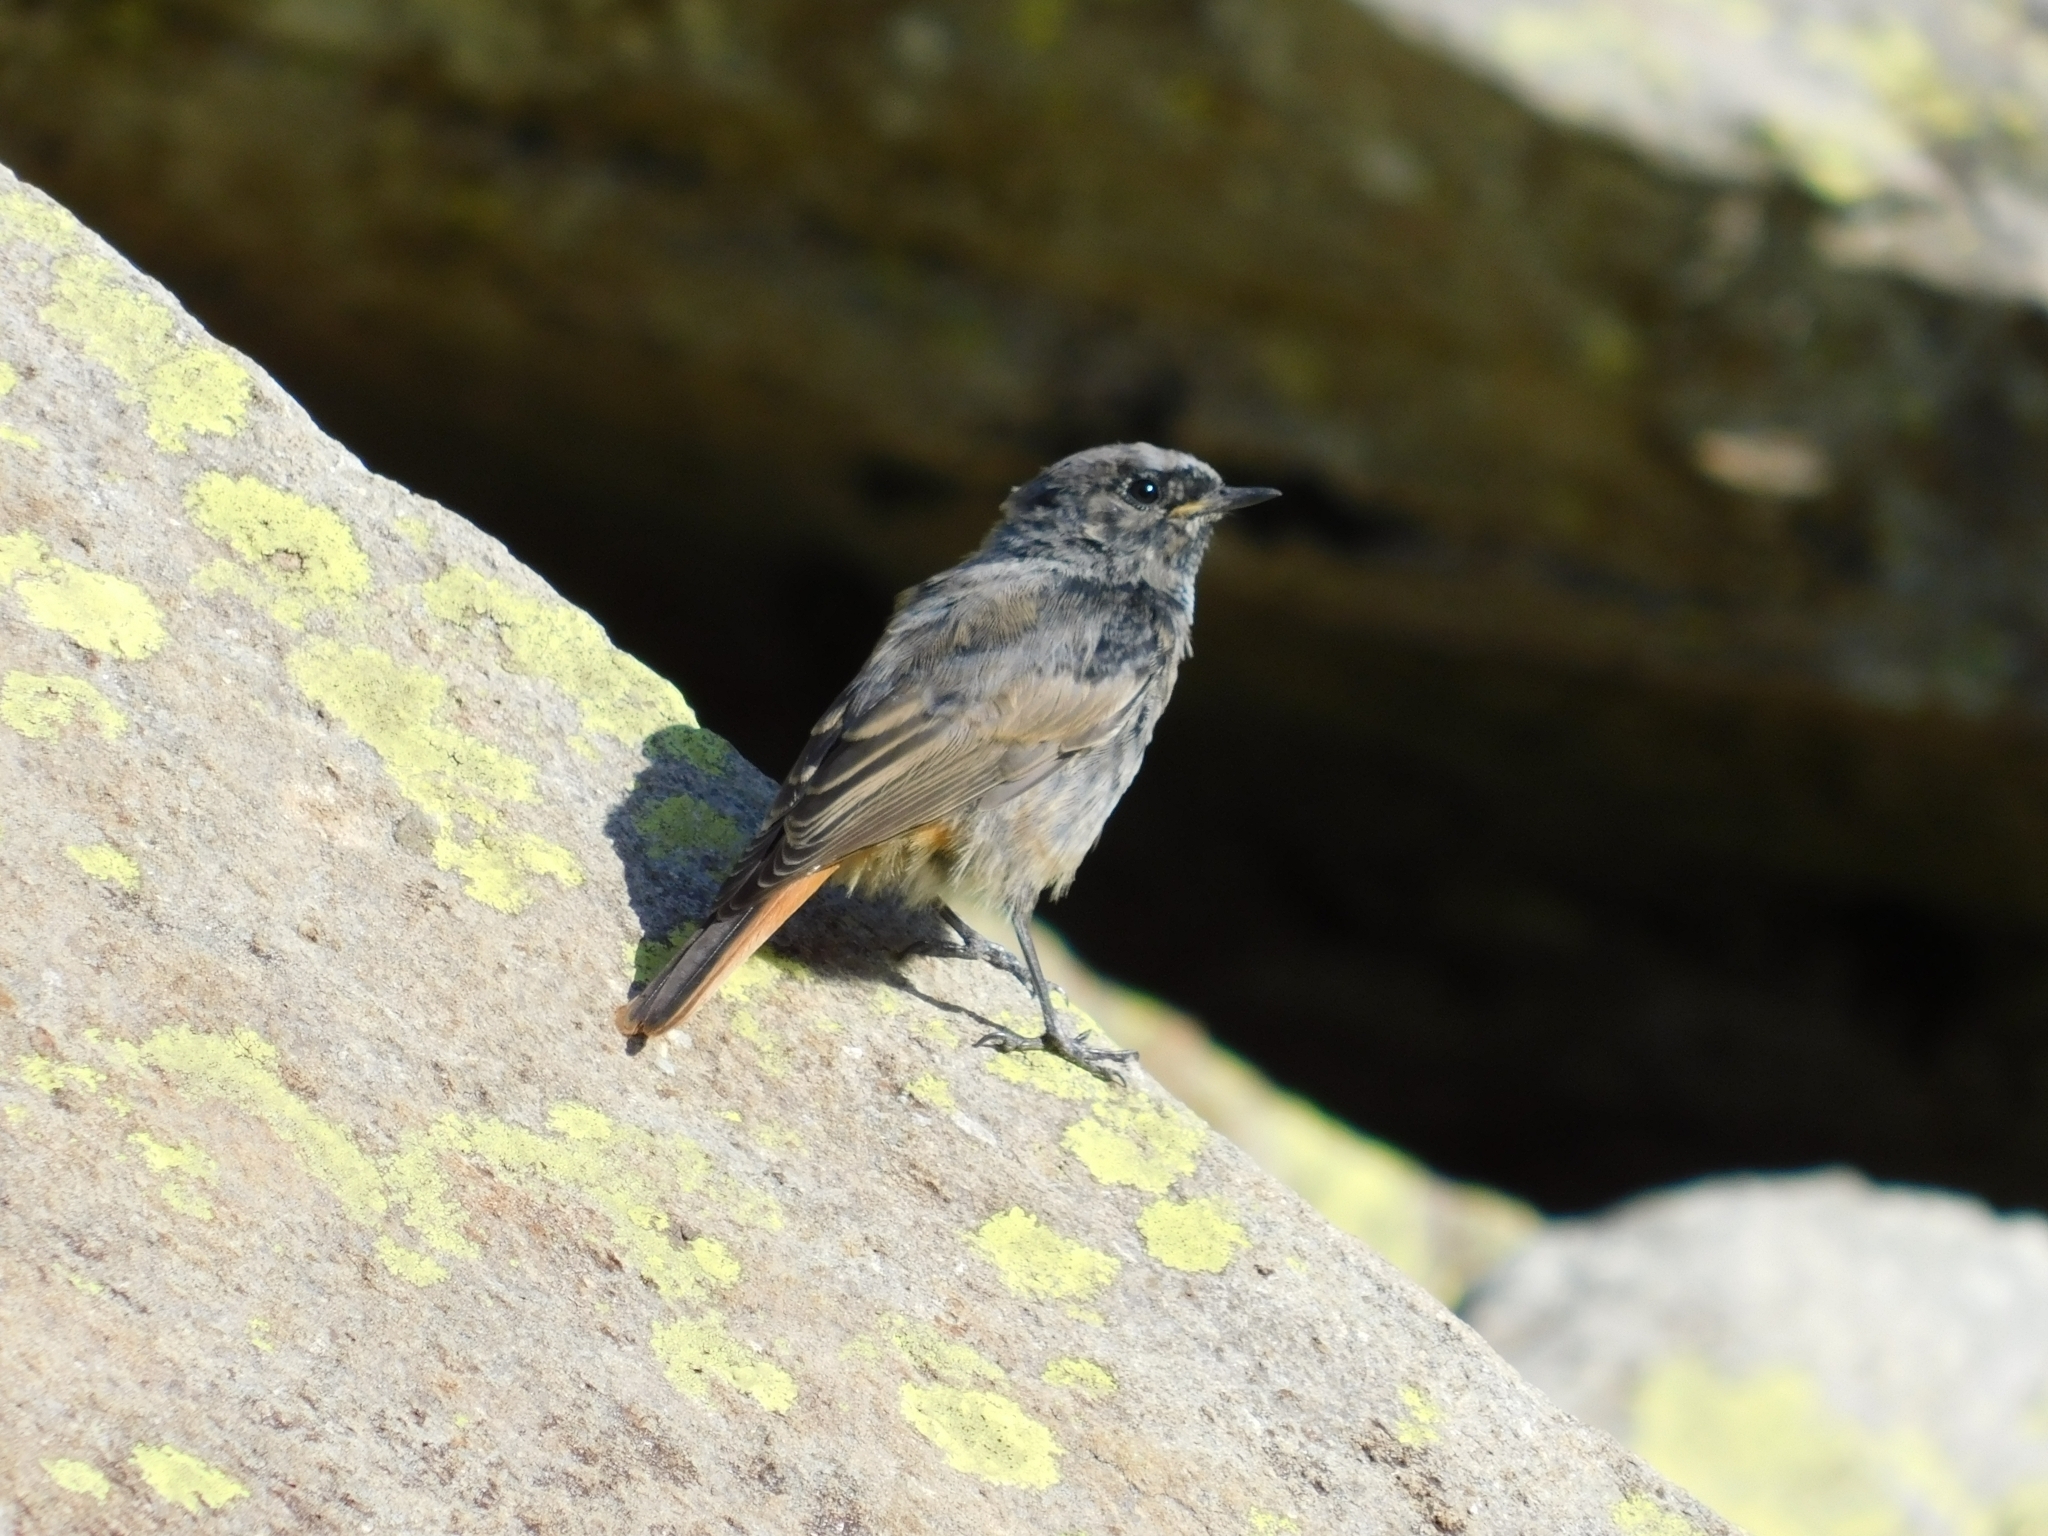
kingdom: Animalia
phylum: Chordata
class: Aves
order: Passeriformes
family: Muscicapidae
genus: Phoenicurus
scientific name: Phoenicurus ochruros
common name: Black redstart
